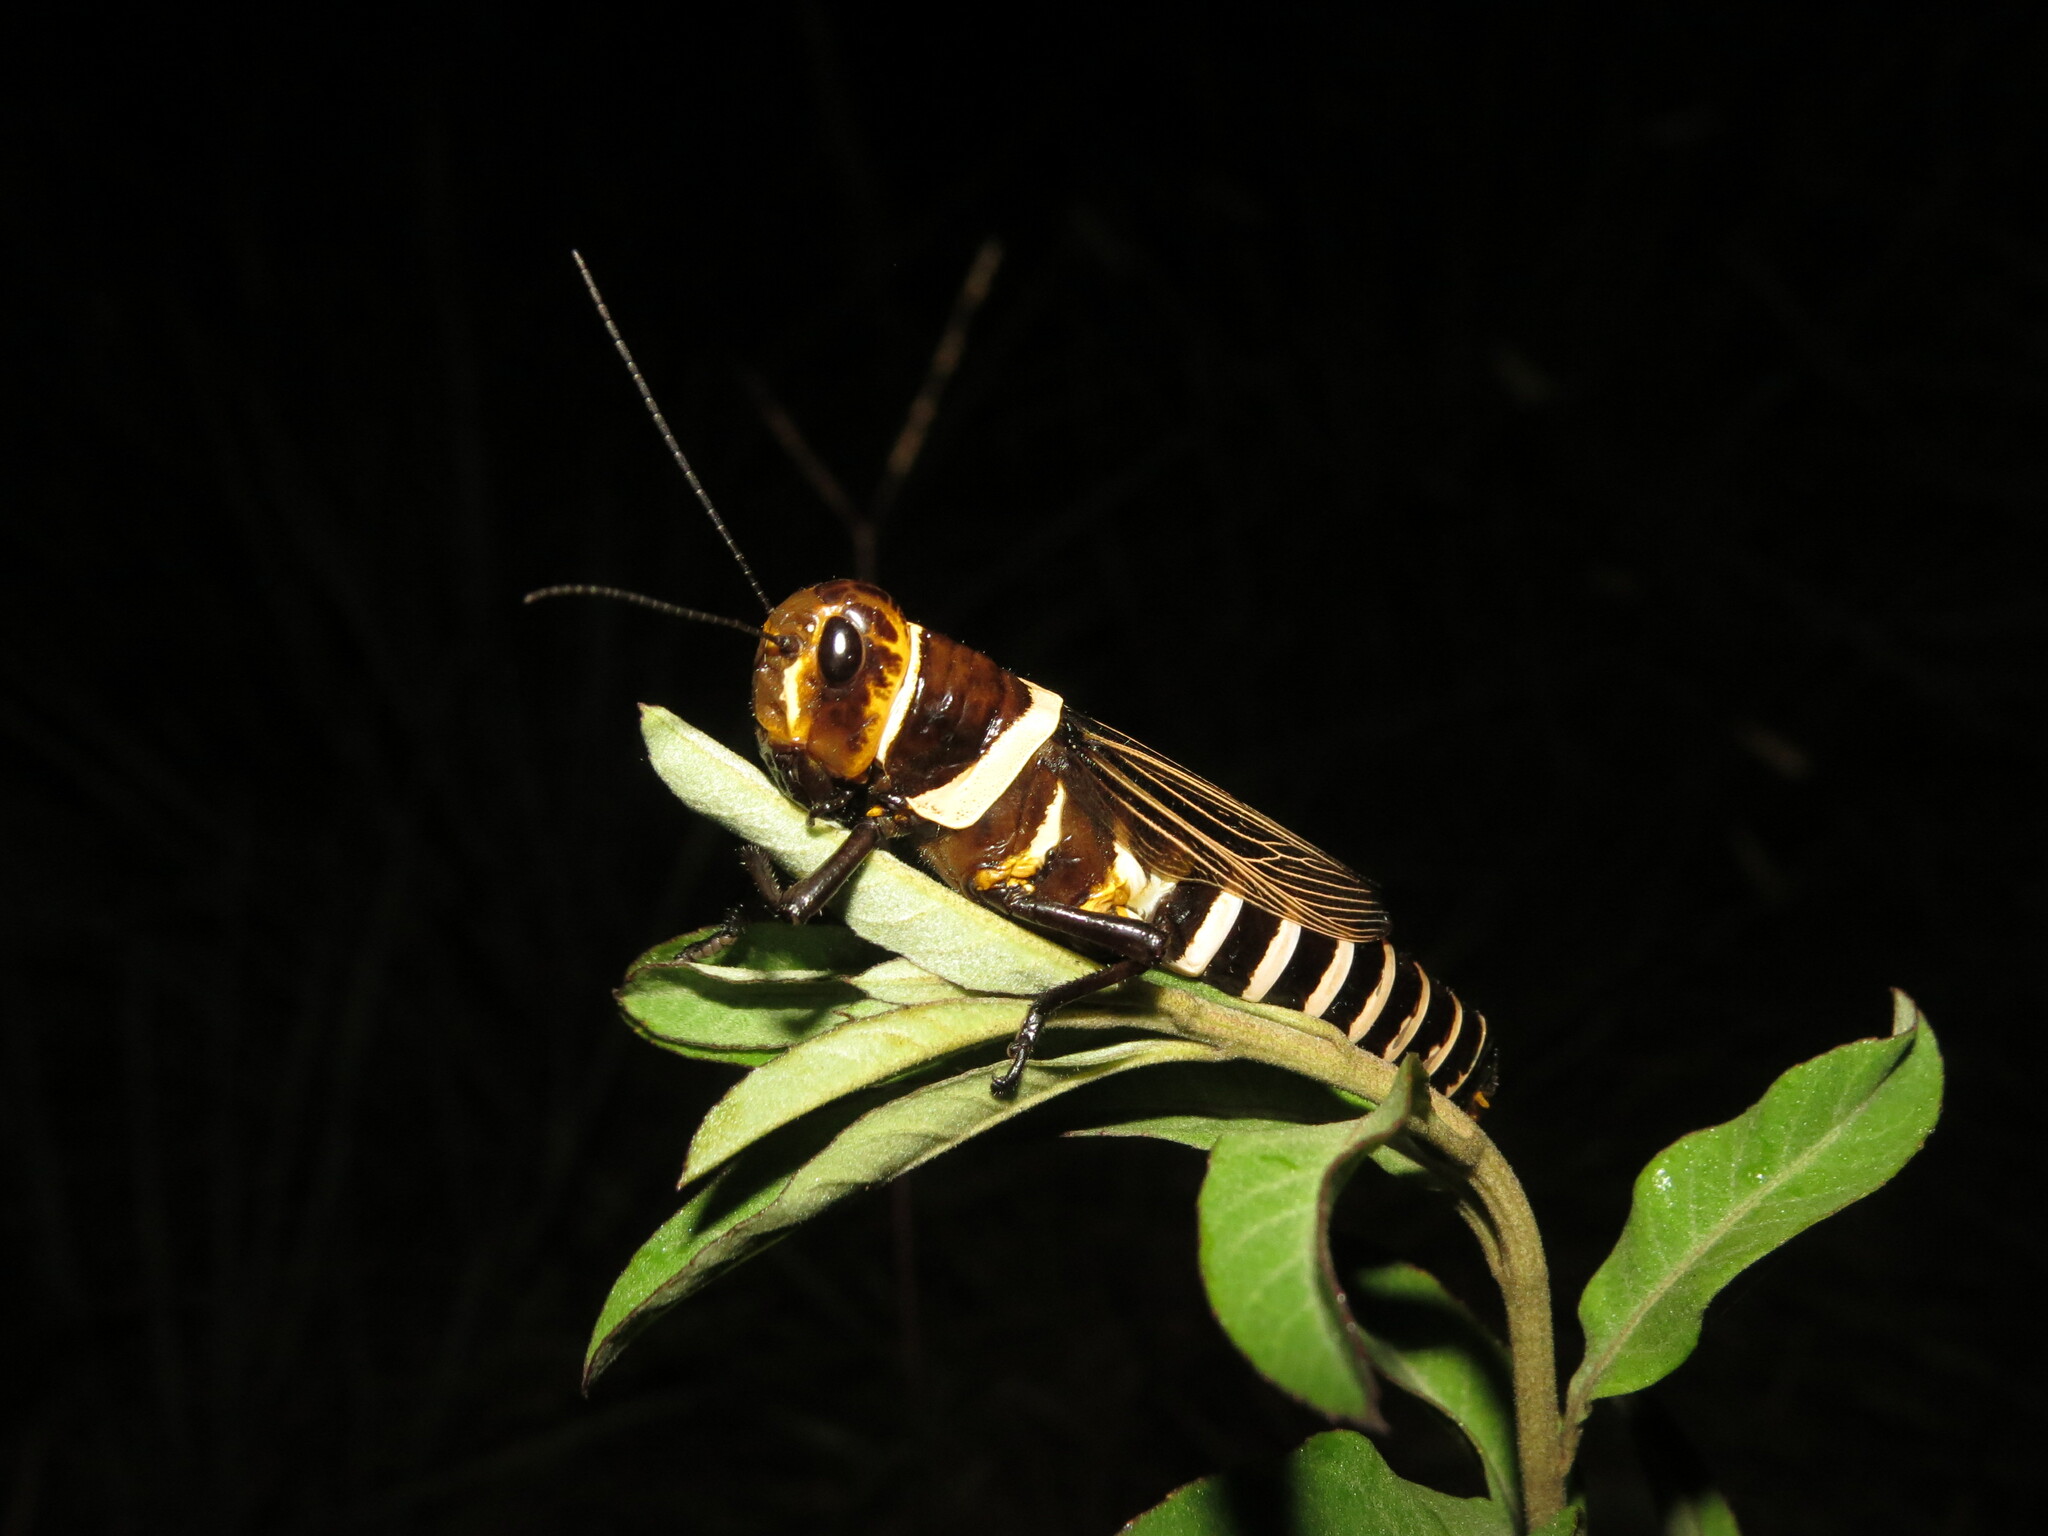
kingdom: Animalia
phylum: Arthropoda
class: Insecta
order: Orthoptera
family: Romaleidae
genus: Zoniopoda
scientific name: Zoniopoda exilipes
